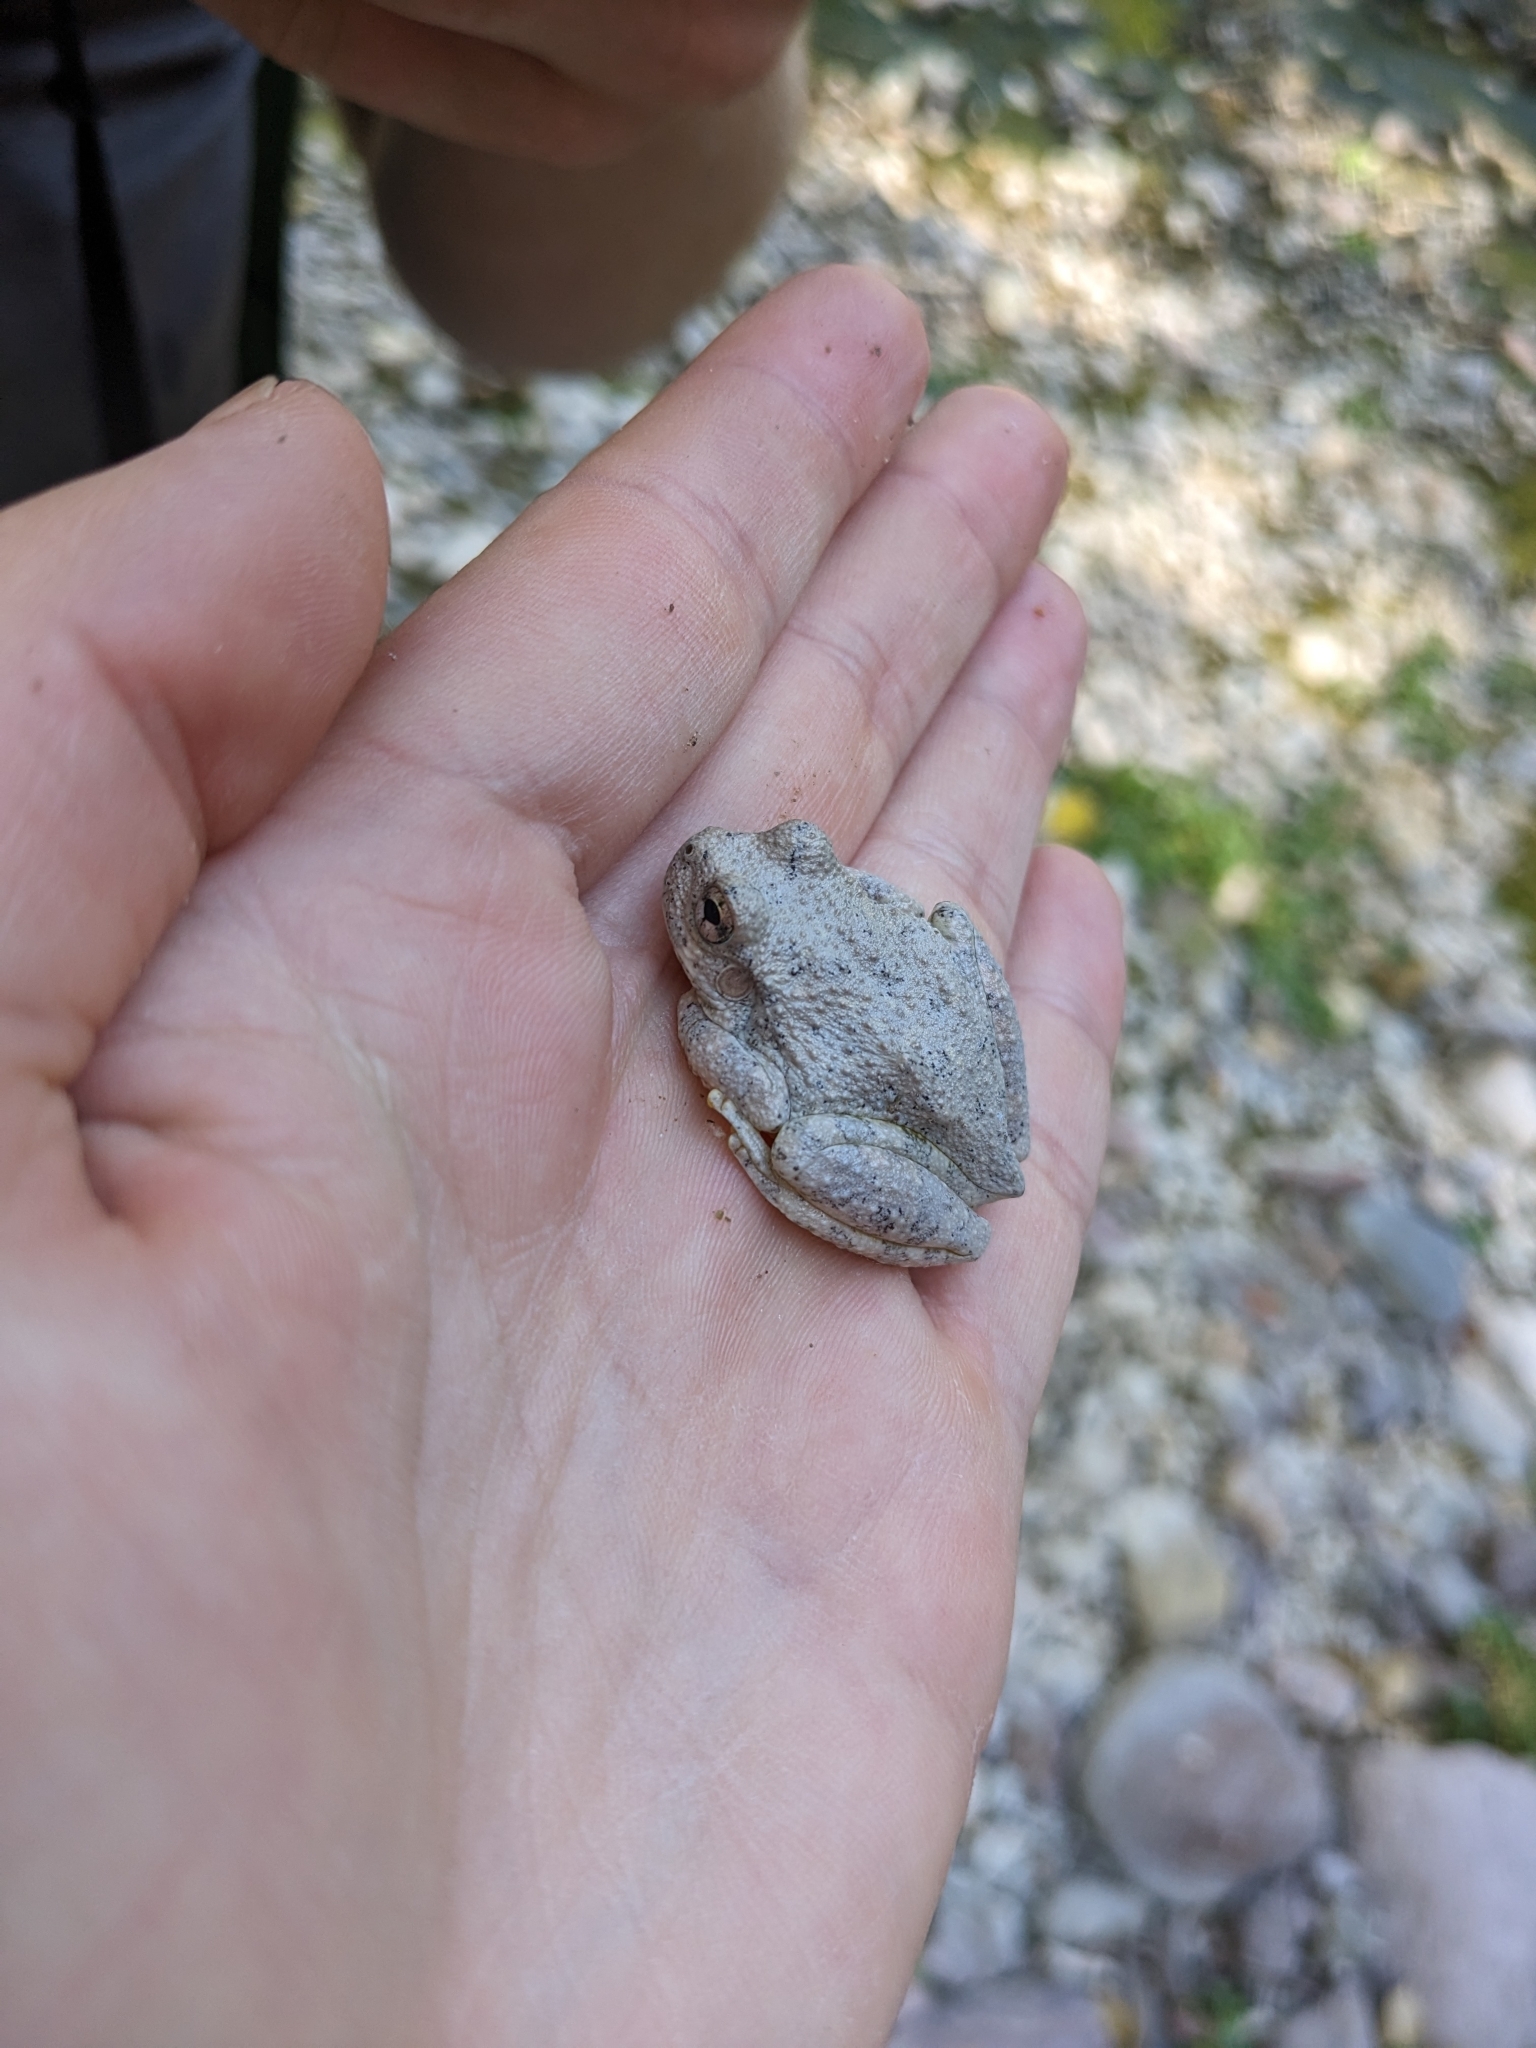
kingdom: Animalia
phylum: Chordata
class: Amphibia
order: Anura
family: Hylidae
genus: Dryophytes
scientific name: Dryophytes arenicolor
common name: Canyon treefrog
